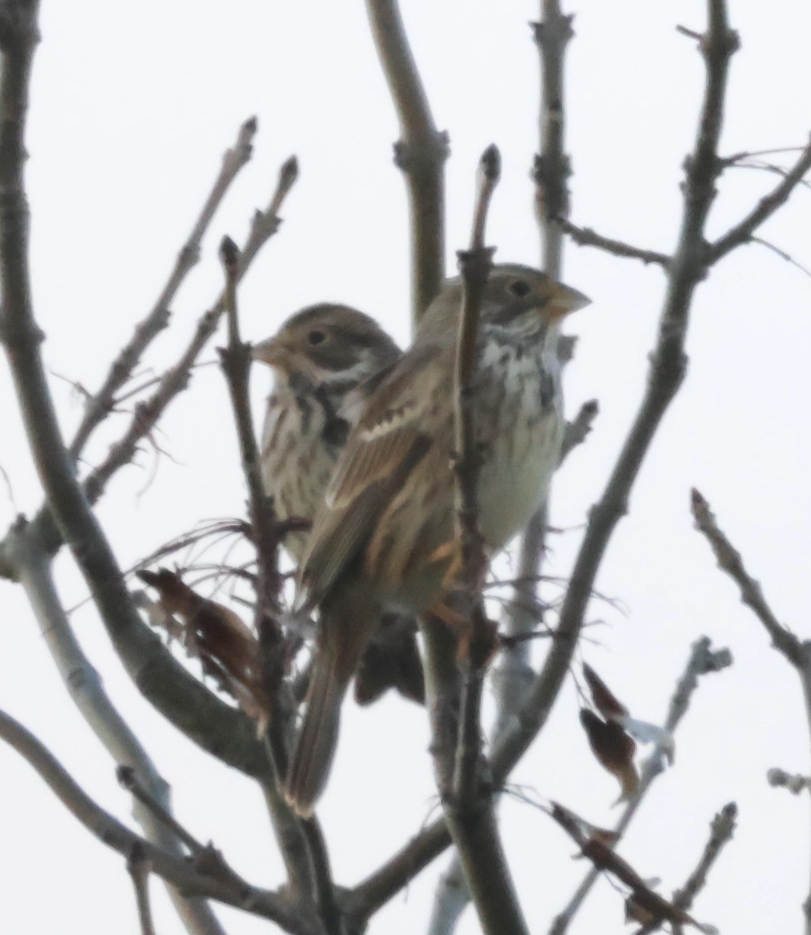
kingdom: Animalia
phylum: Chordata
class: Aves
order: Passeriformes
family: Emberizidae
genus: Emberiza
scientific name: Emberiza calandra
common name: Corn bunting
